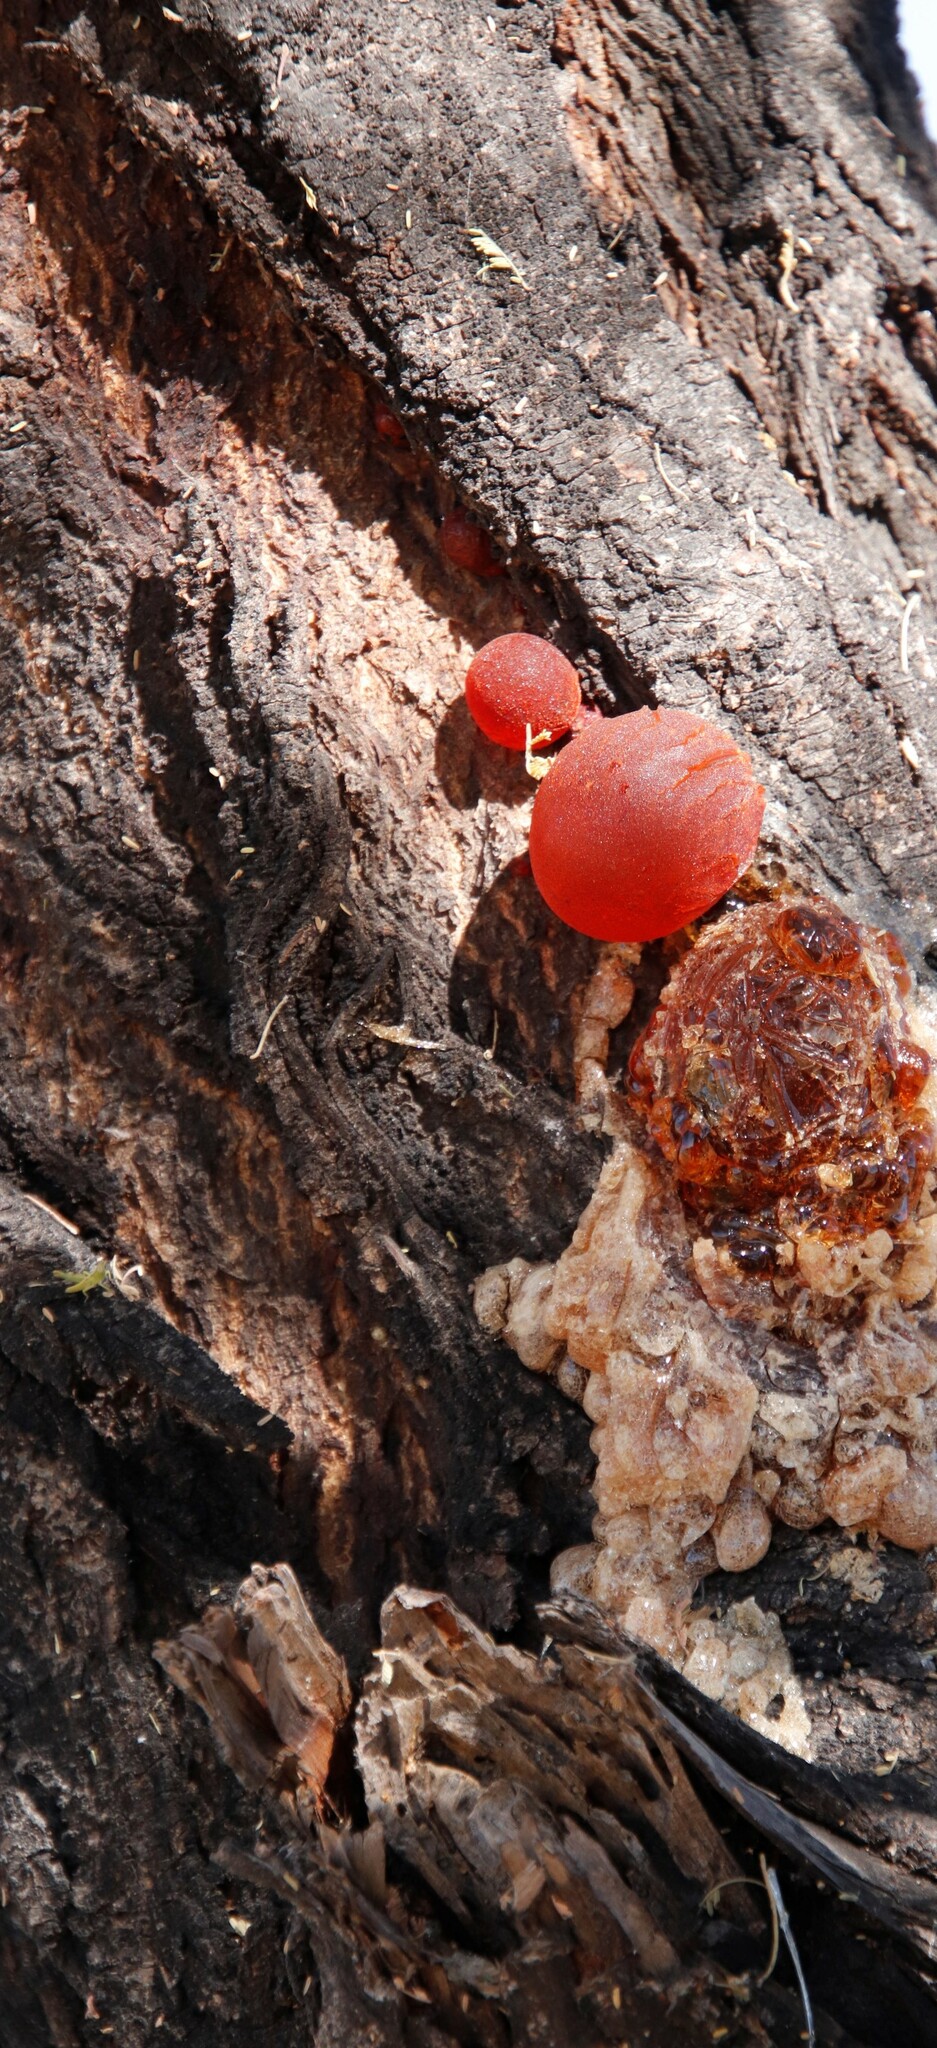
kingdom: Plantae
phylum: Tracheophyta
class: Magnoliopsida
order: Fabales
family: Fabaceae
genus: Vachellia
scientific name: Vachellia tortilis
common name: Umbrella thorn acacia
